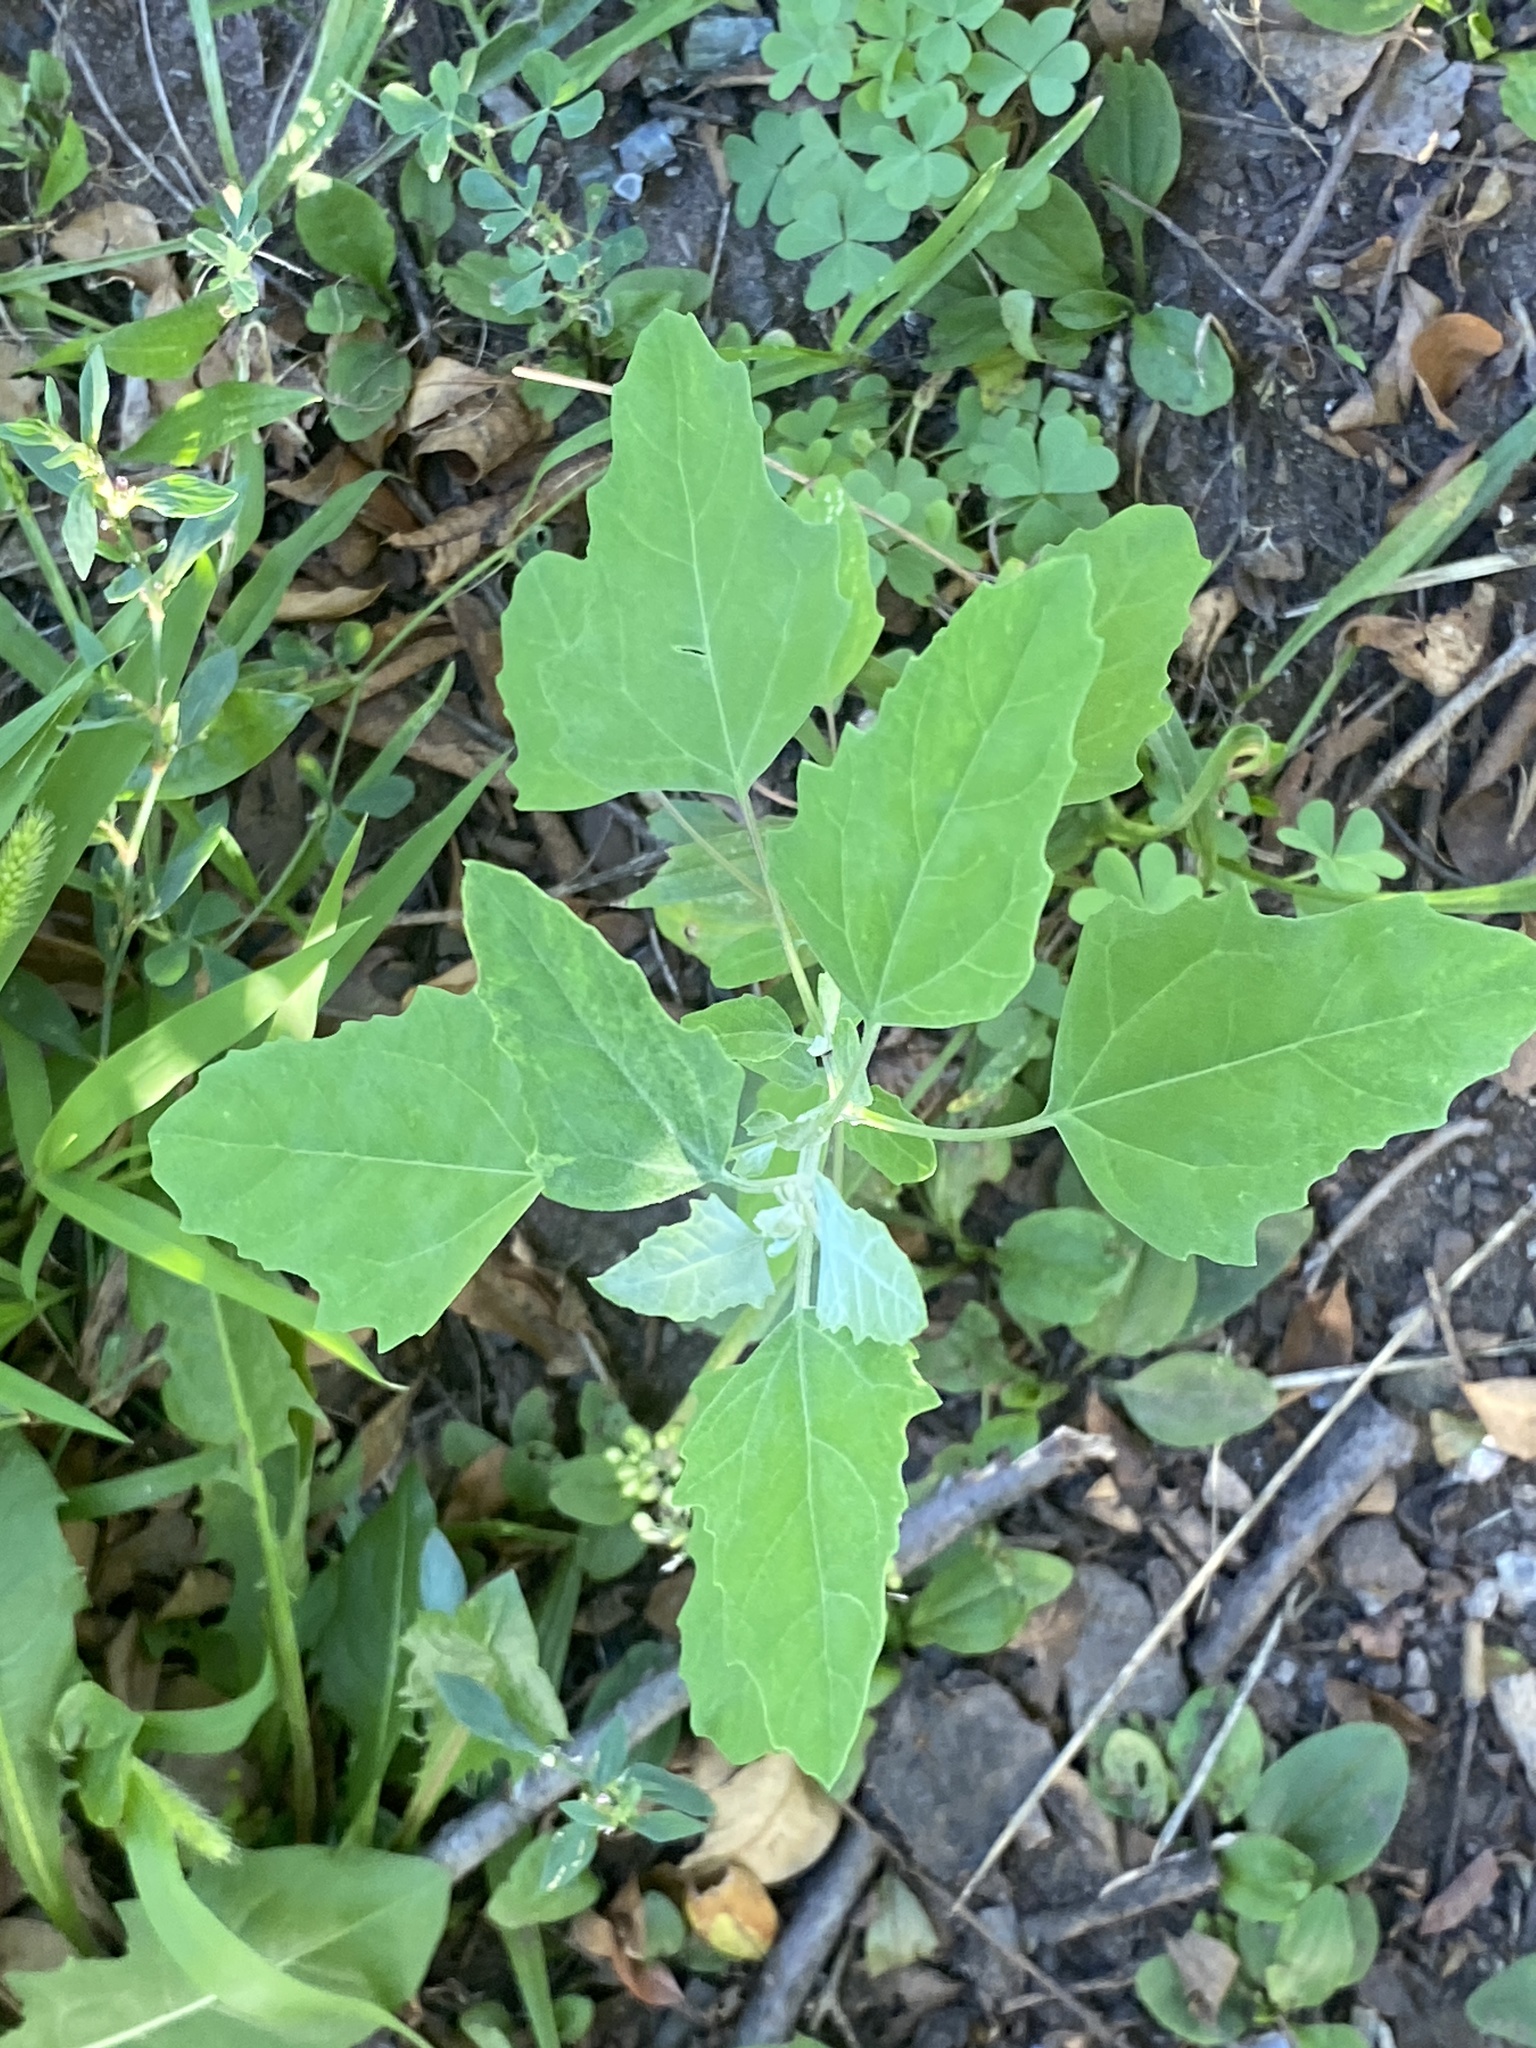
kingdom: Plantae
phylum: Tracheophyta
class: Magnoliopsida
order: Caryophyllales
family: Amaranthaceae
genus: Chenopodium
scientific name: Chenopodium album
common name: Fat-hen
